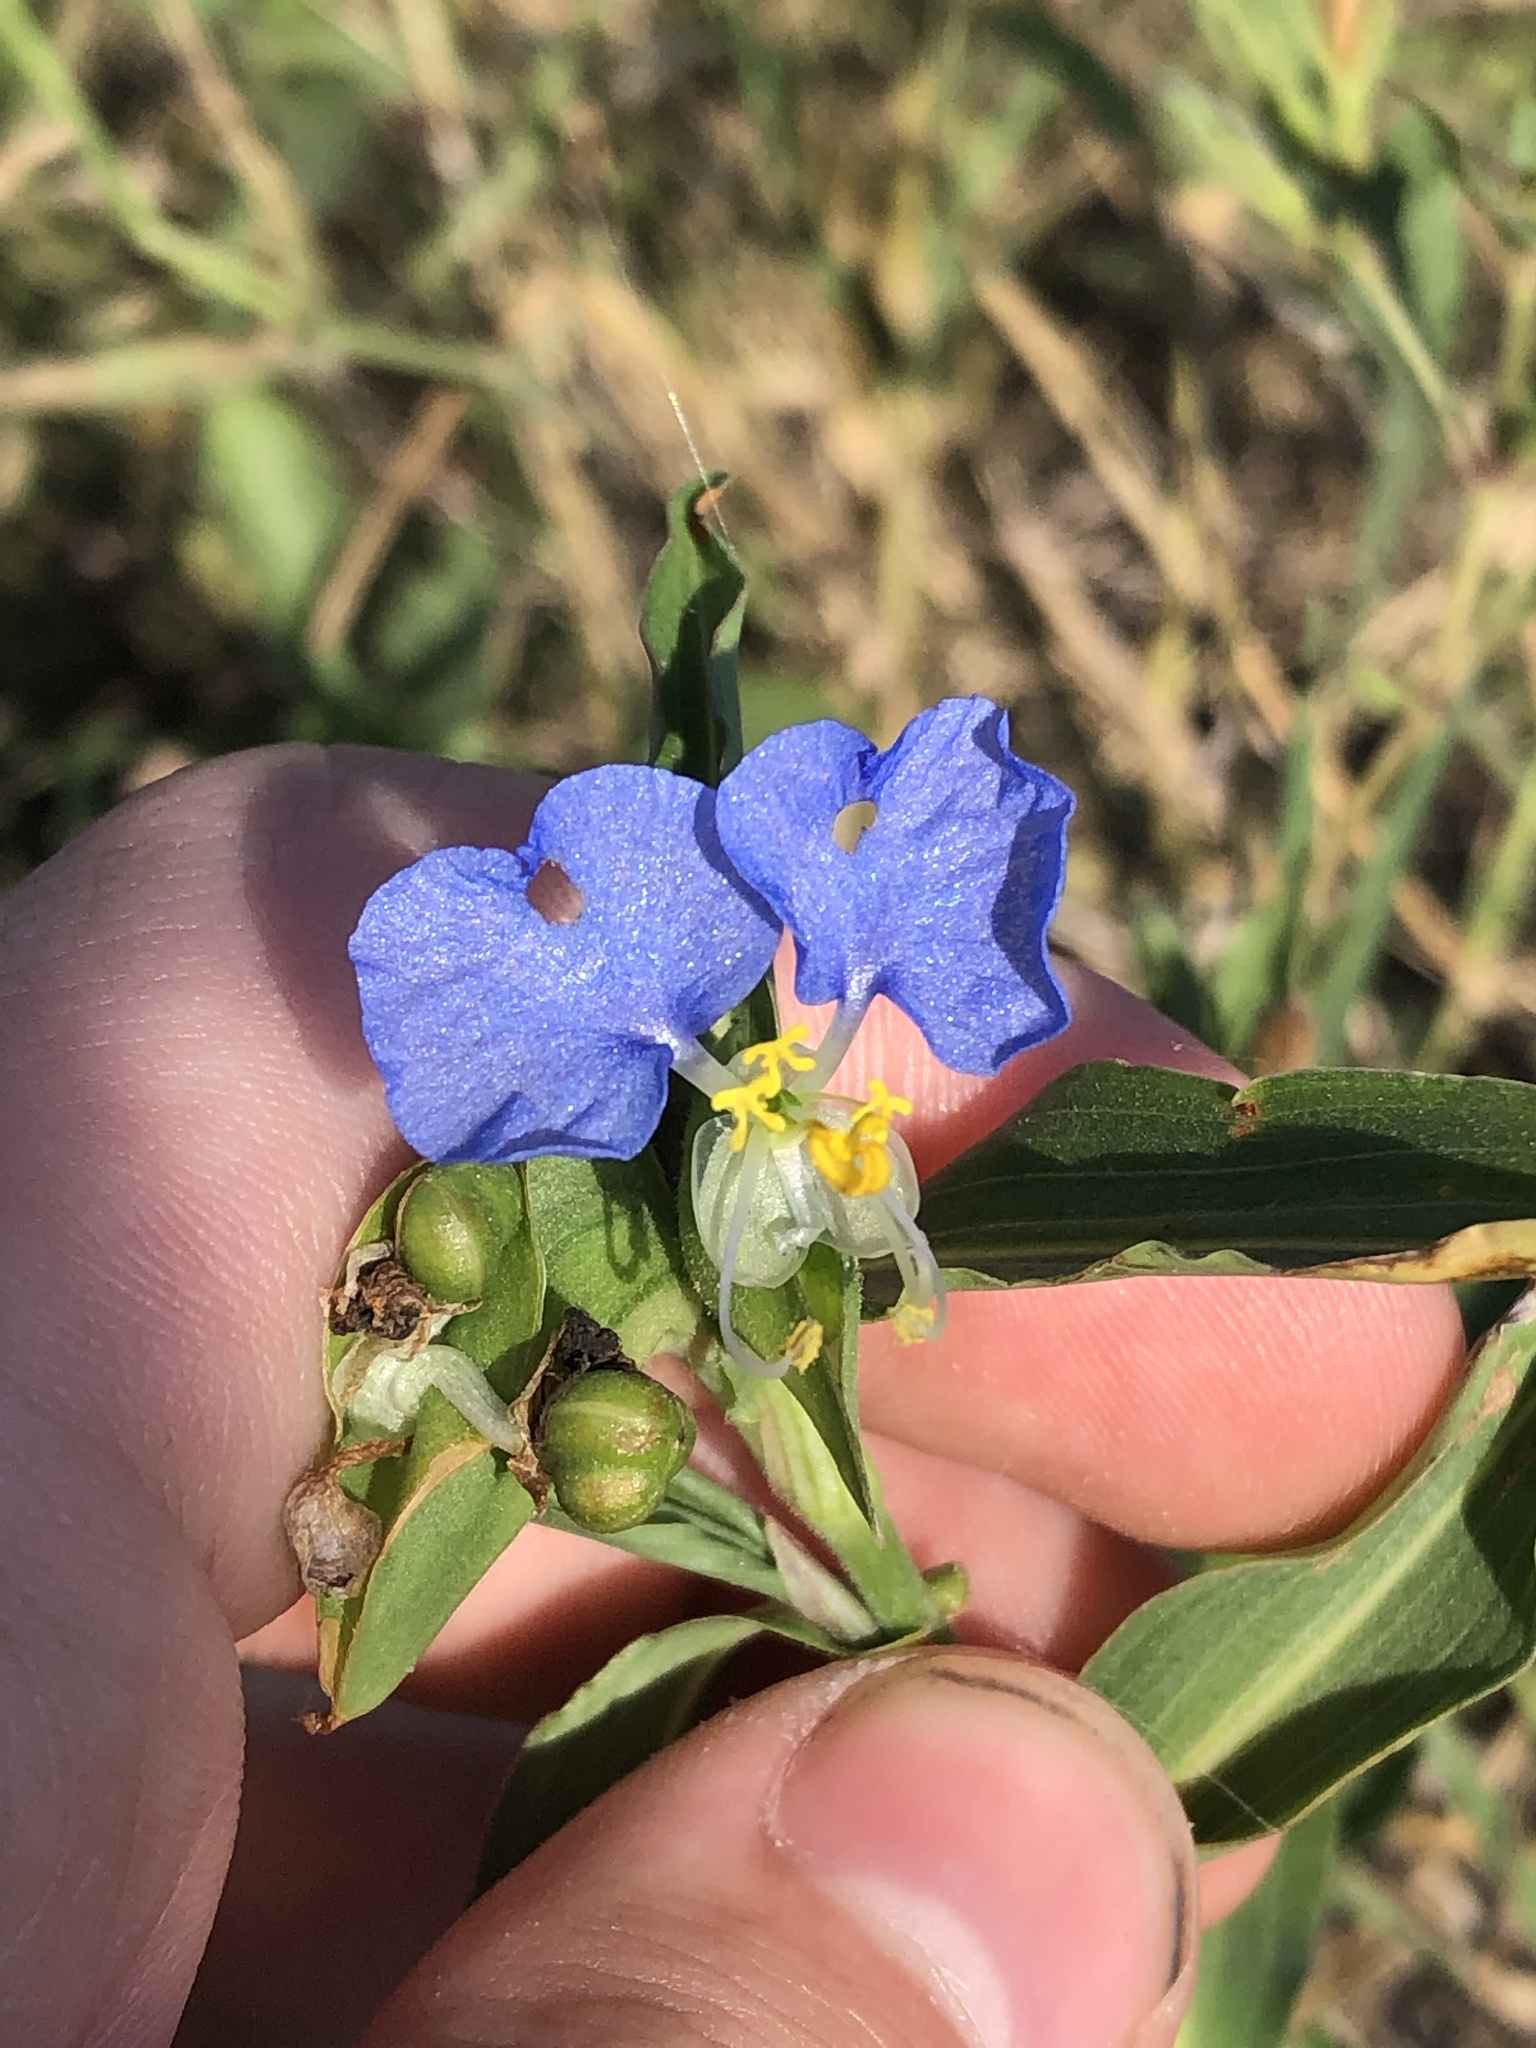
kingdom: Plantae
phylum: Tracheophyta
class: Liliopsida
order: Commelinales
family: Commelinaceae
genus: Commelina
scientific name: Commelina erecta
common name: Blousel blommetjie
